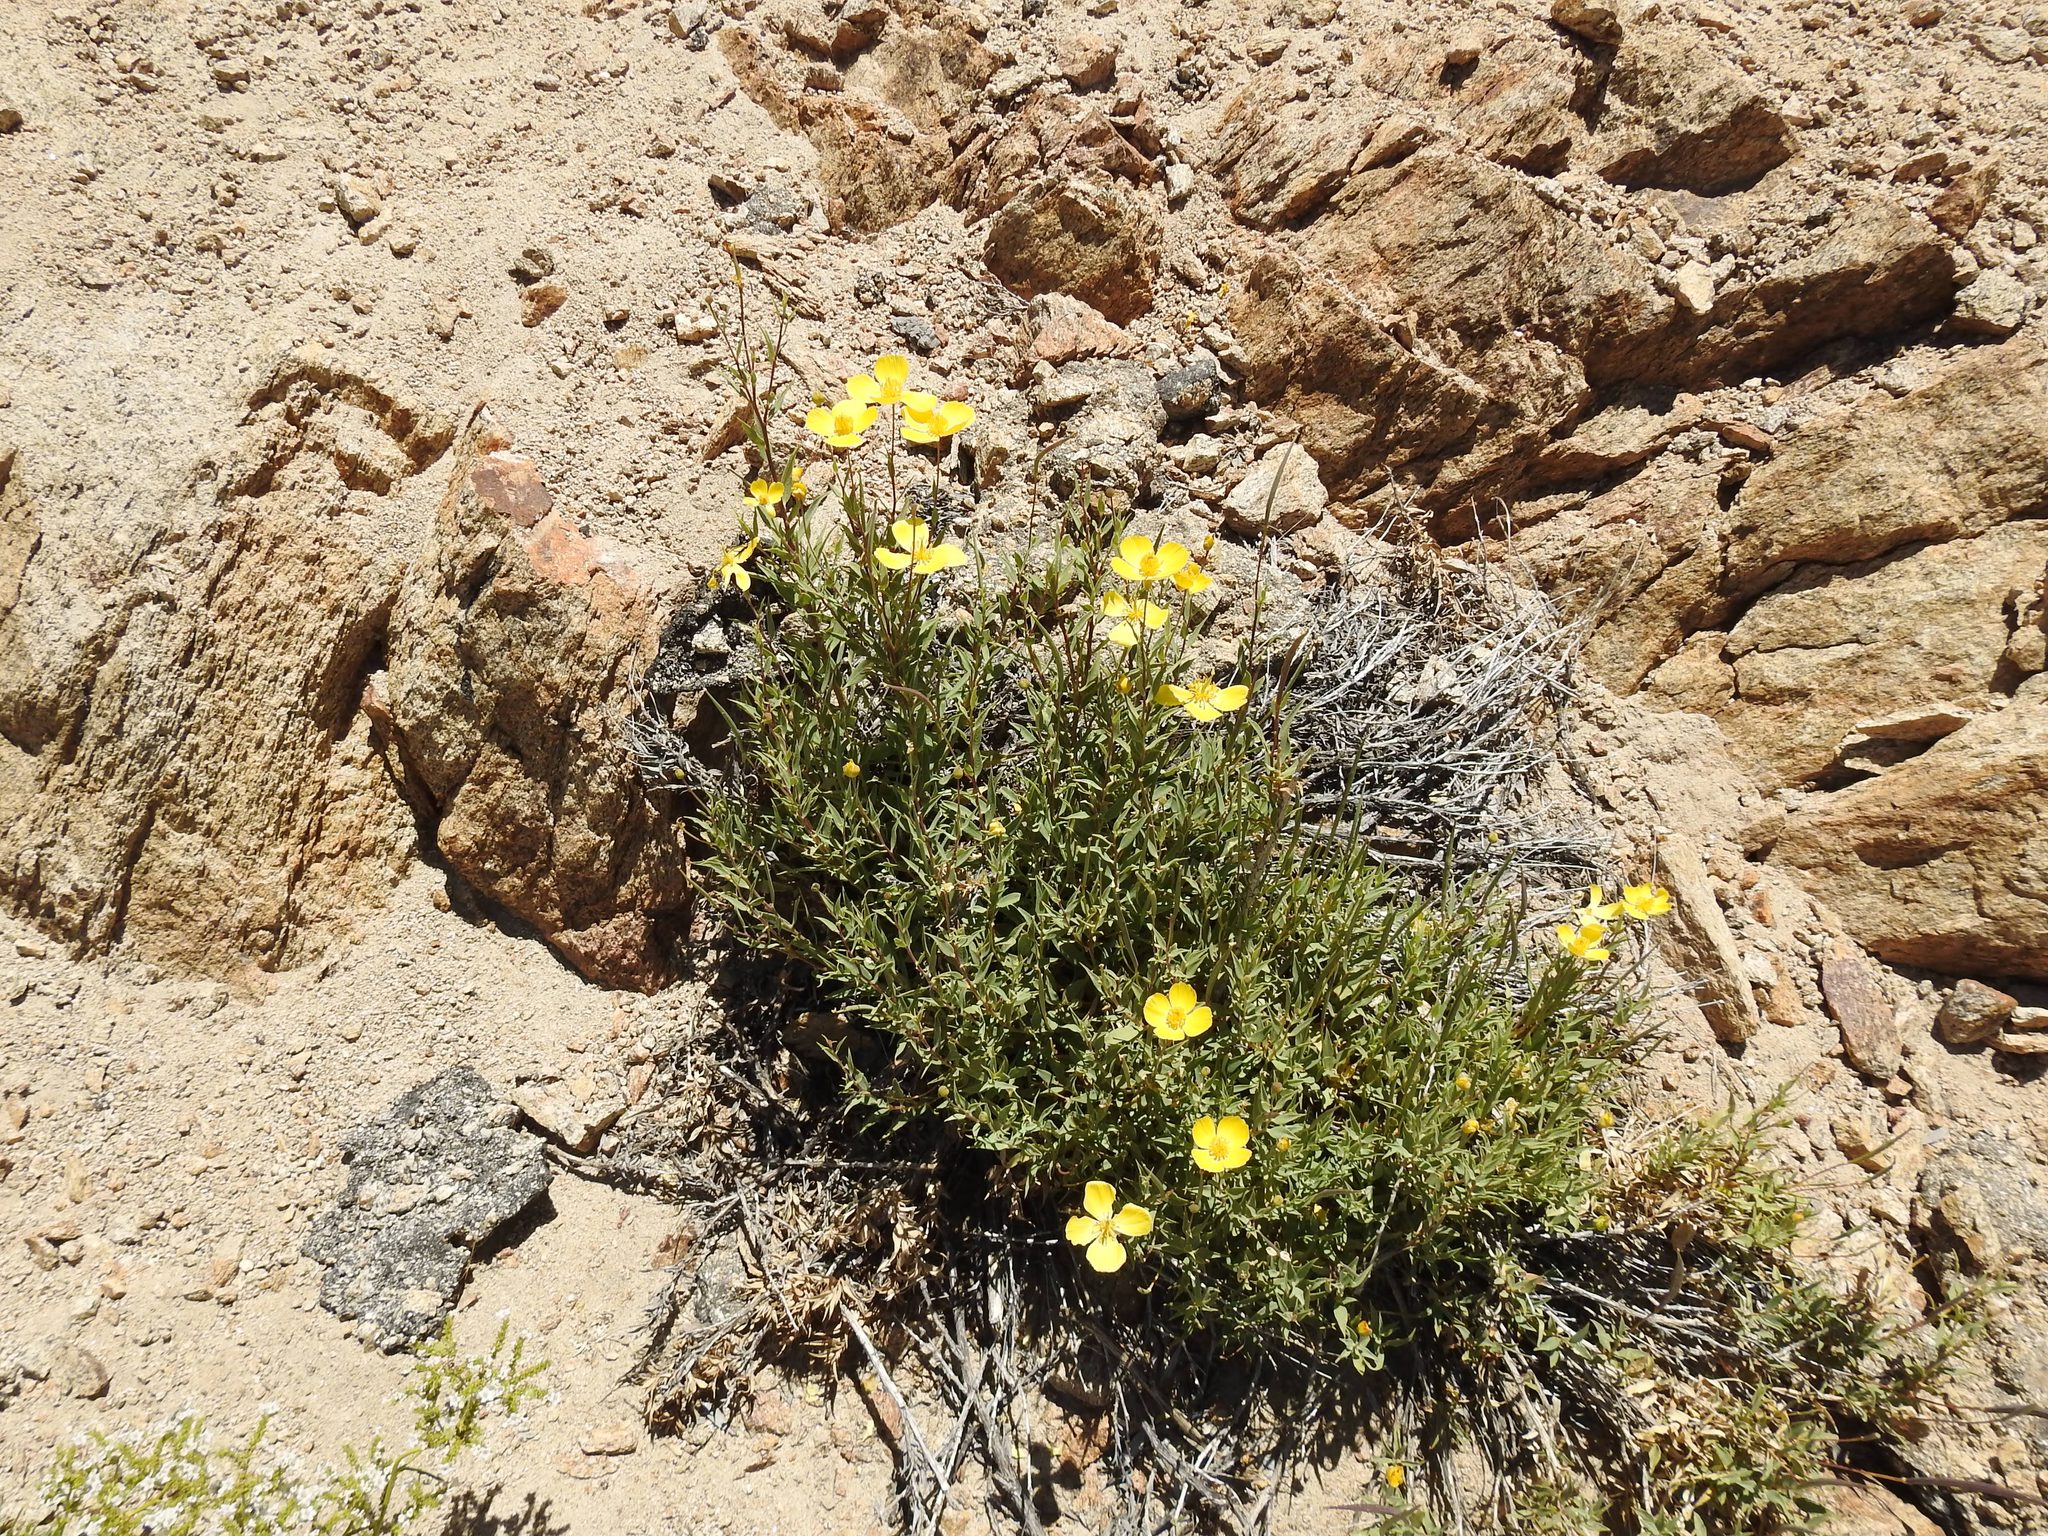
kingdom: Plantae
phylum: Tracheophyta
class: Magnoliopsida
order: Ranunculales
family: Papaveraceae
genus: Dendromecon
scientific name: Dendromecon rigida
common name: Tree poppy
